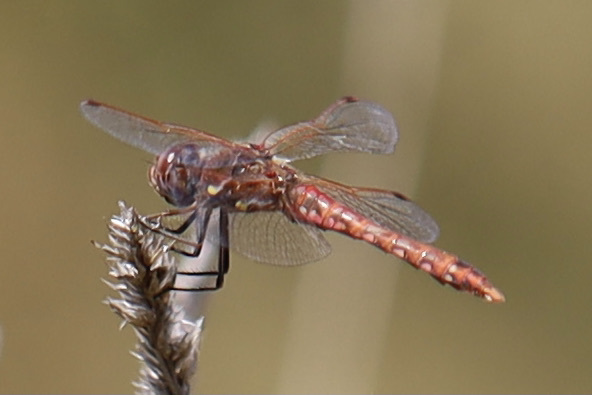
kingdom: Animalia
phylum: Arthropoda
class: Insecta
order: Odonata
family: Libellulidae
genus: Sympetrum
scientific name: Sympetrum corruptum
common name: Variegated meadowhawk
